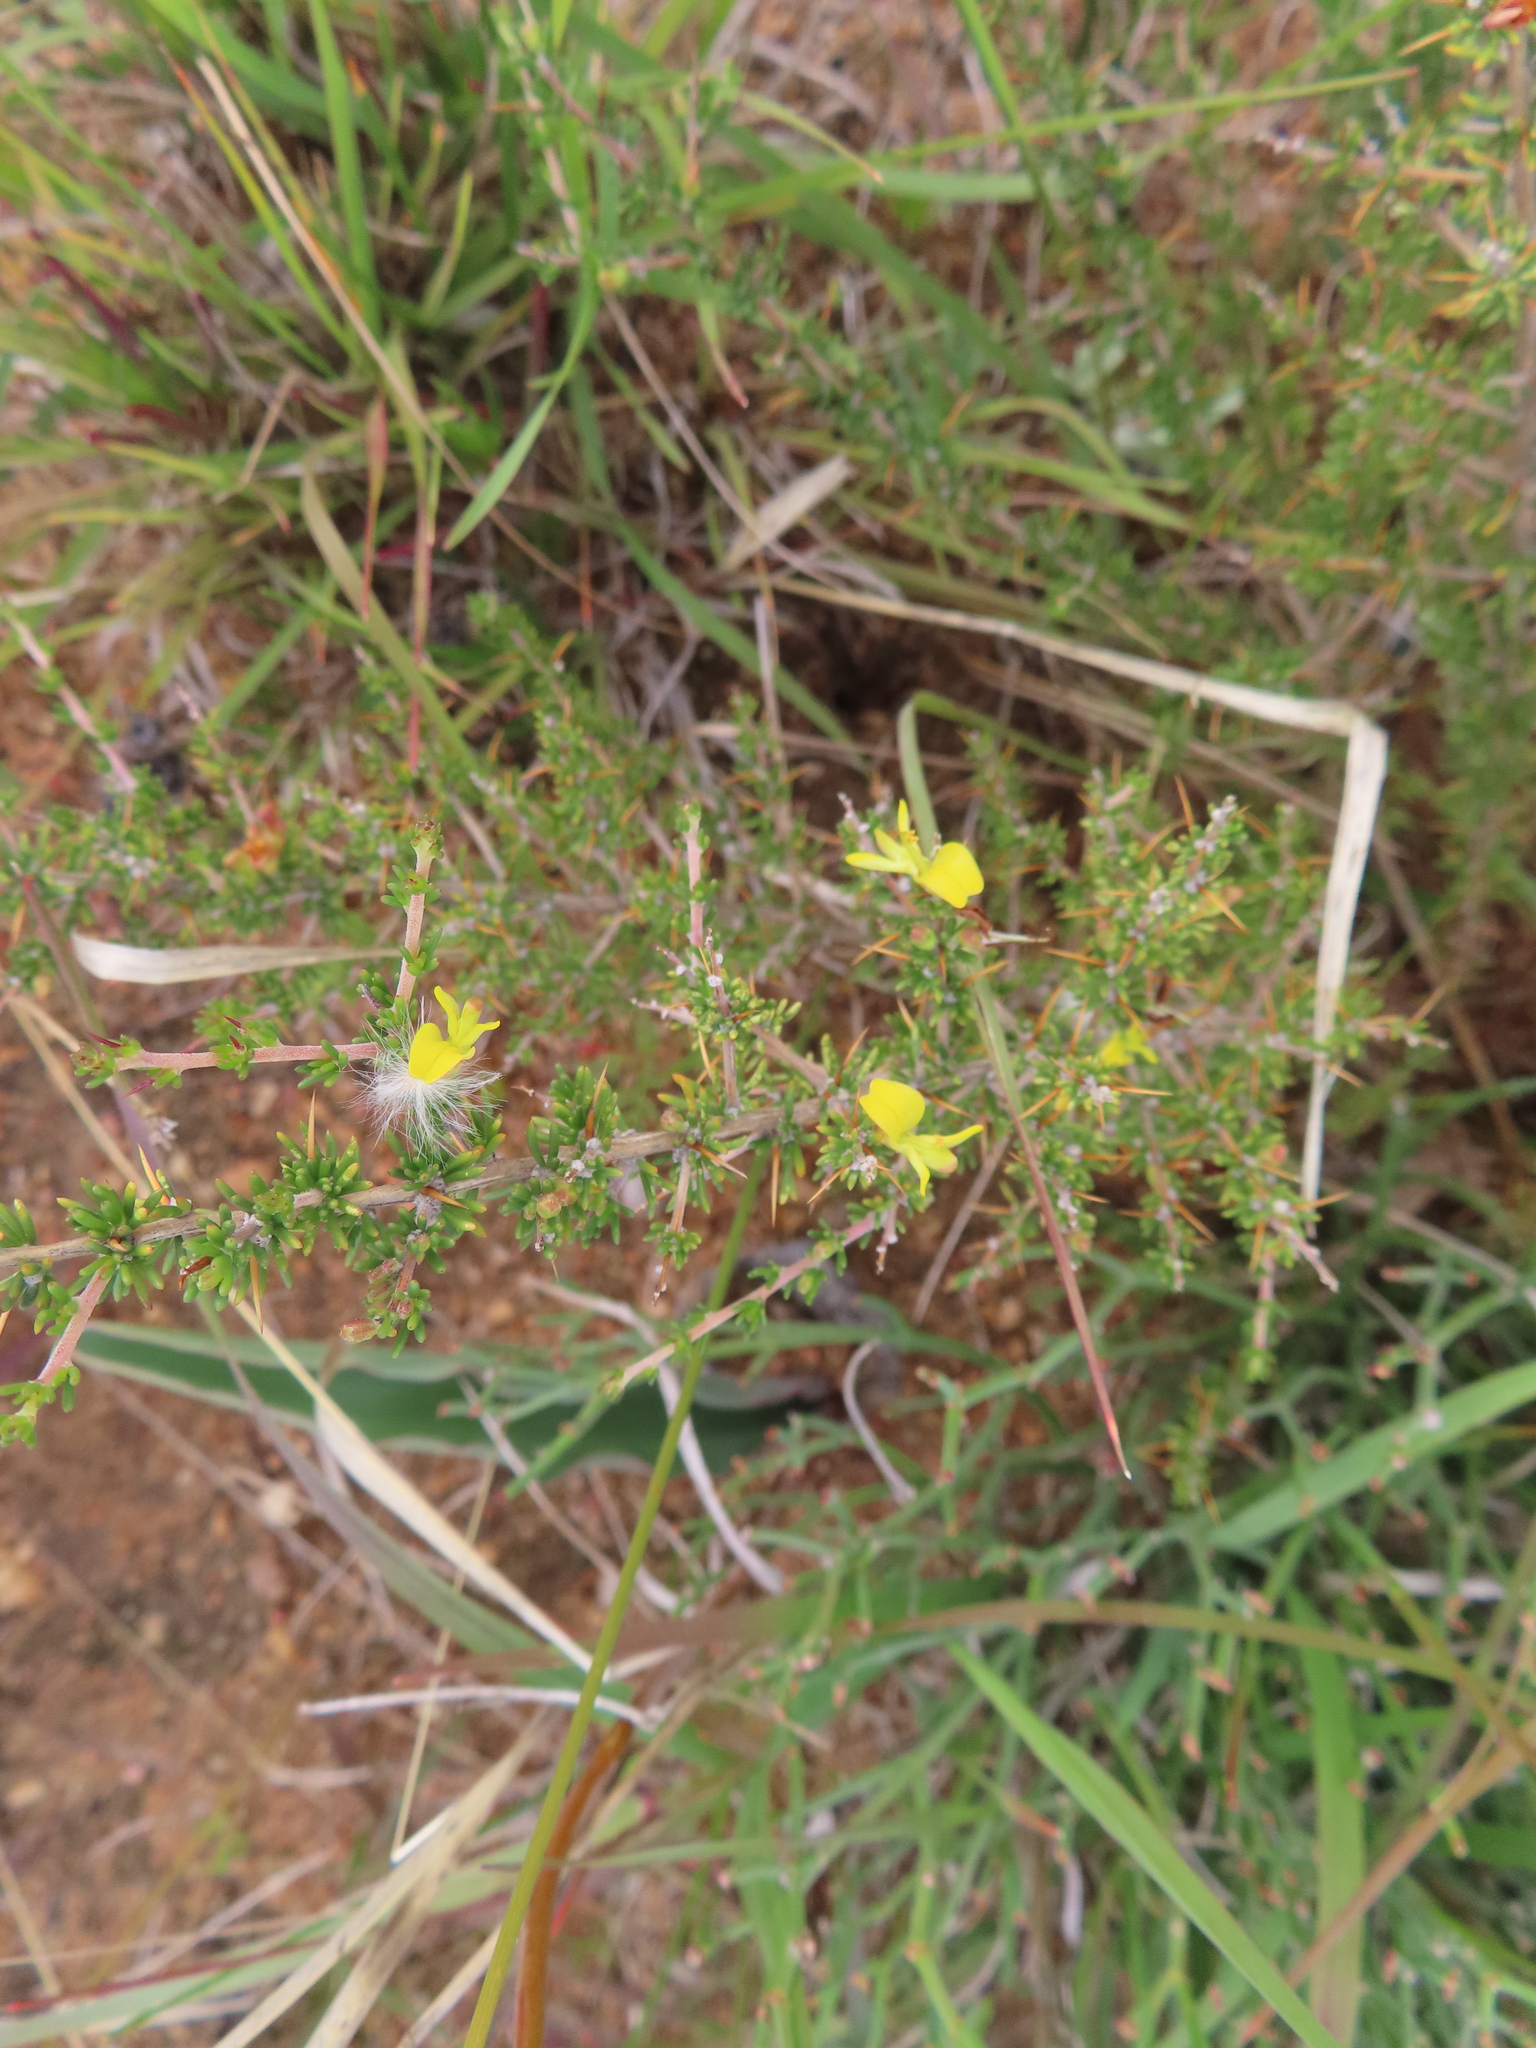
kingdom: Plantae
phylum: Tracheophyta
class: Magnoliopsida
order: Fabales
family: Fabaceae
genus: Aspalathus
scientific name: Aspalathus spinosa
